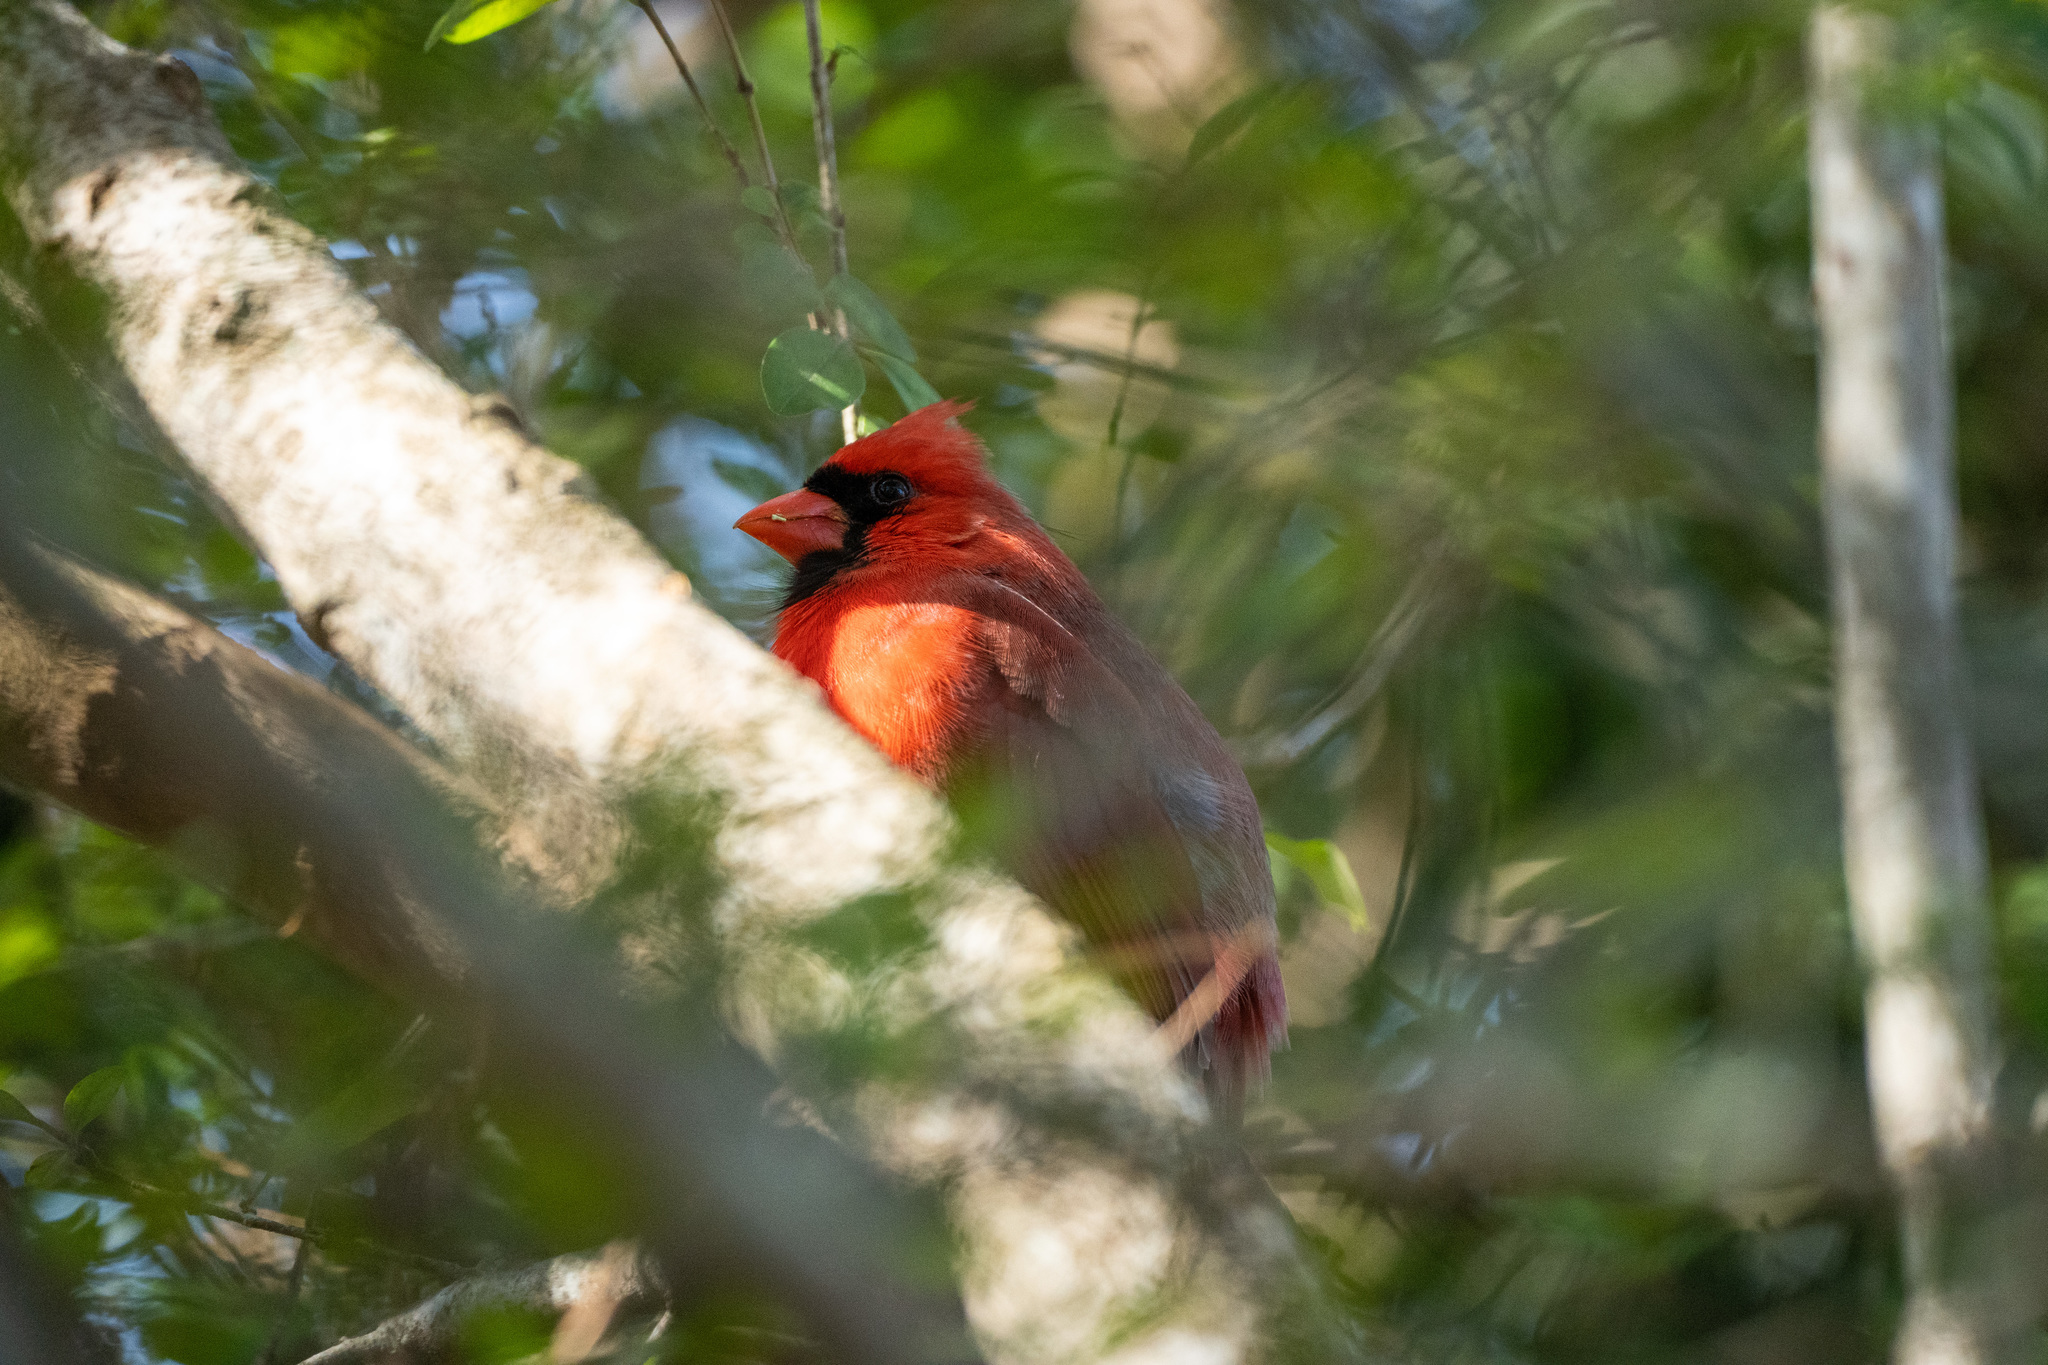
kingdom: Animalia
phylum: Chordata
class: Aves
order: Passeriformes
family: Cardinalidae
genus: Cardinalis
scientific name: Cardinalis cardinalis
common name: Northern cardinal
